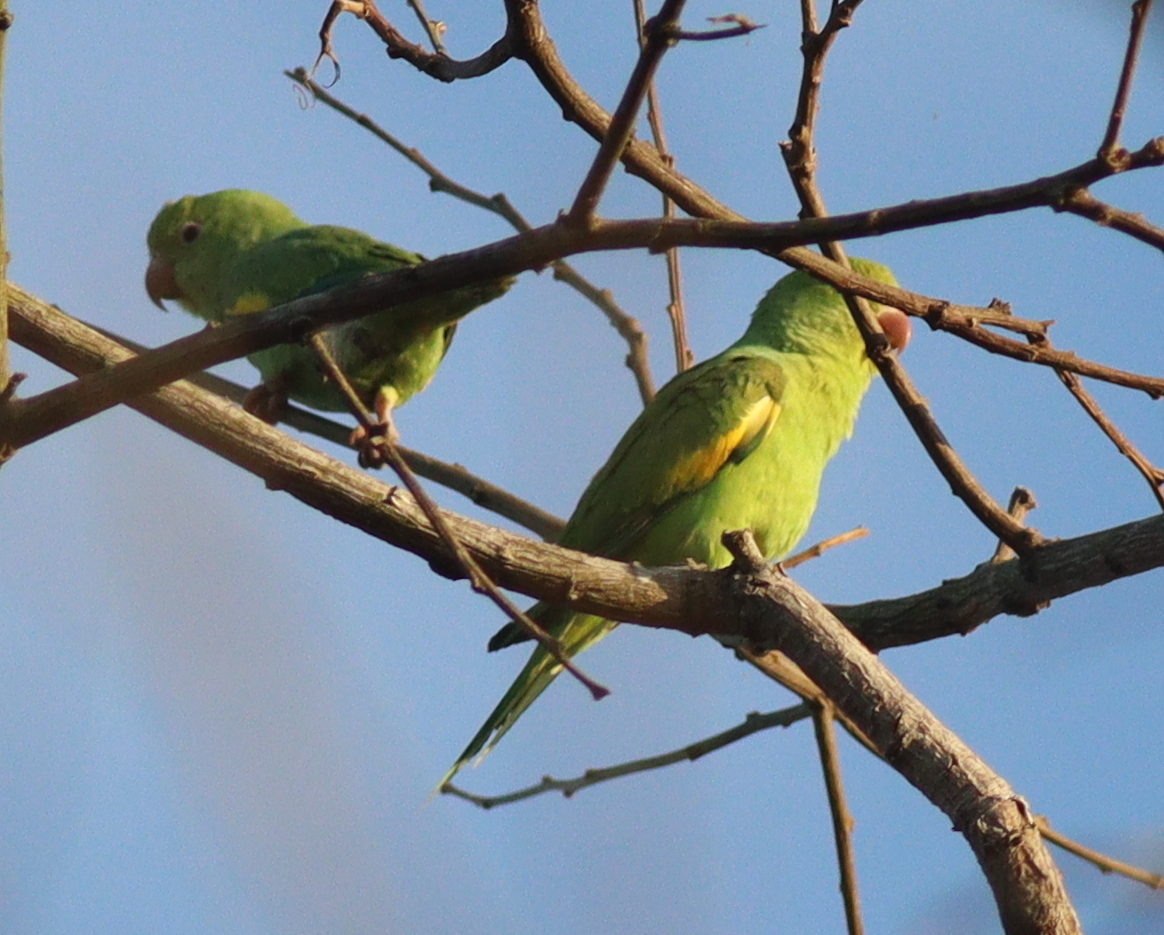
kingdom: Animalia
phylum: Chordata
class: Aves
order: Psittaciformes
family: Psittacidae
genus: Brotogeris
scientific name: Brotogeris chiriri
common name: Yellow-chevroned parakeet
